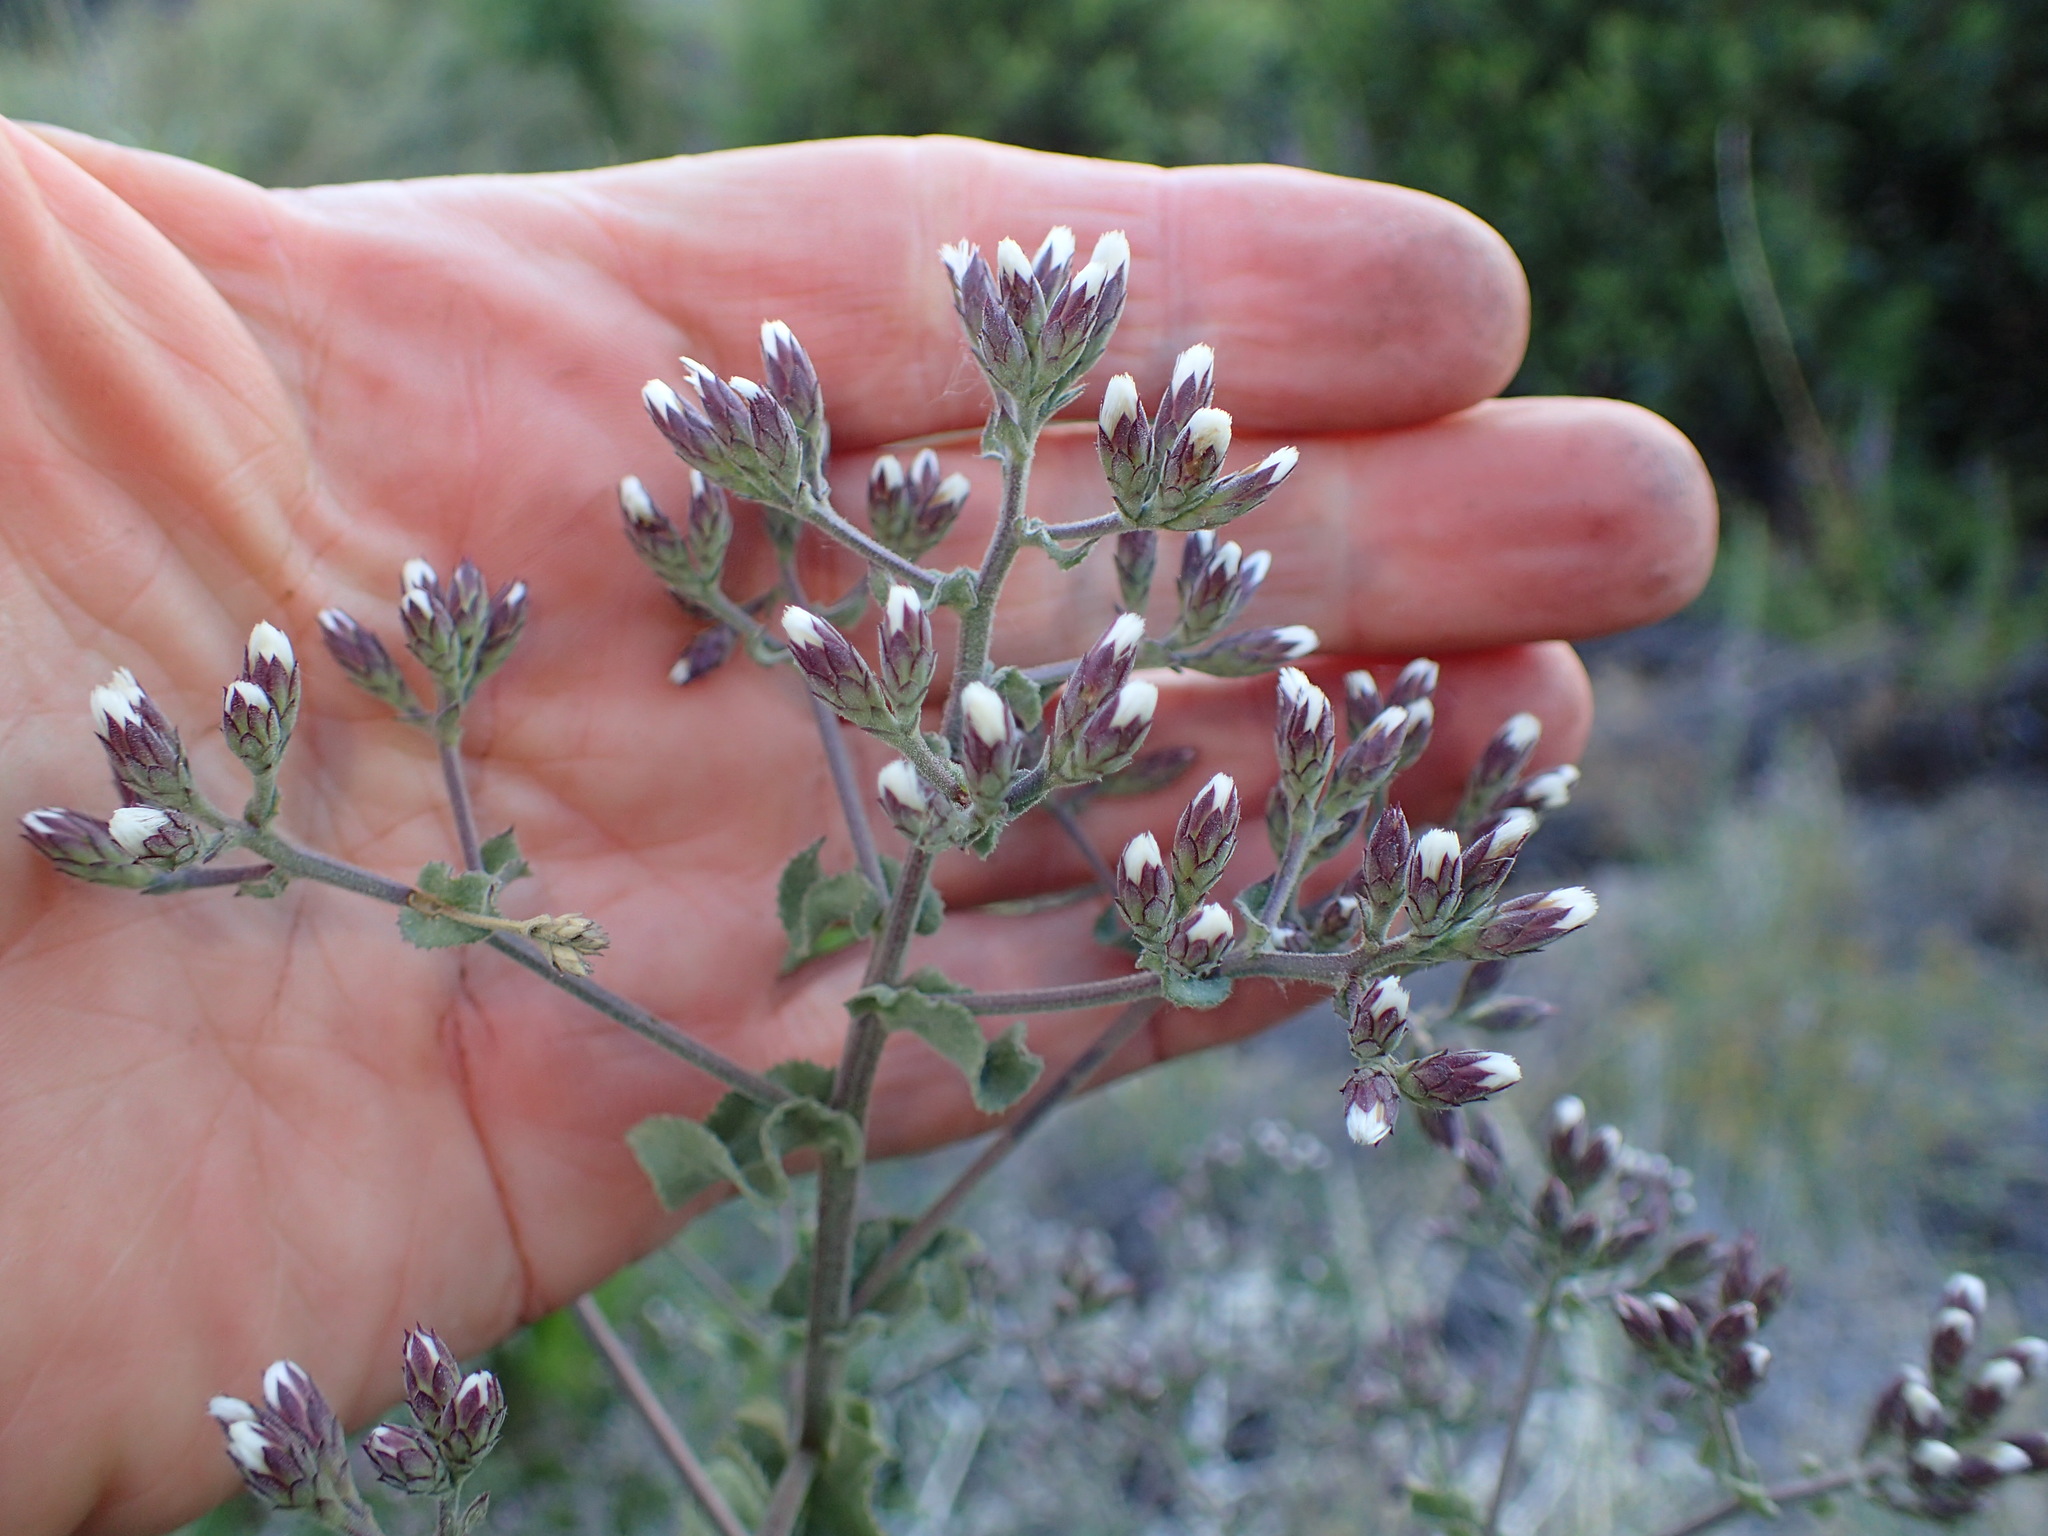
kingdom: Plantae
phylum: Tracheophyta
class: Magnoliopsida
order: Asterales
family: Asteraceae
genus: Acourtia
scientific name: Acourtia microcephala
